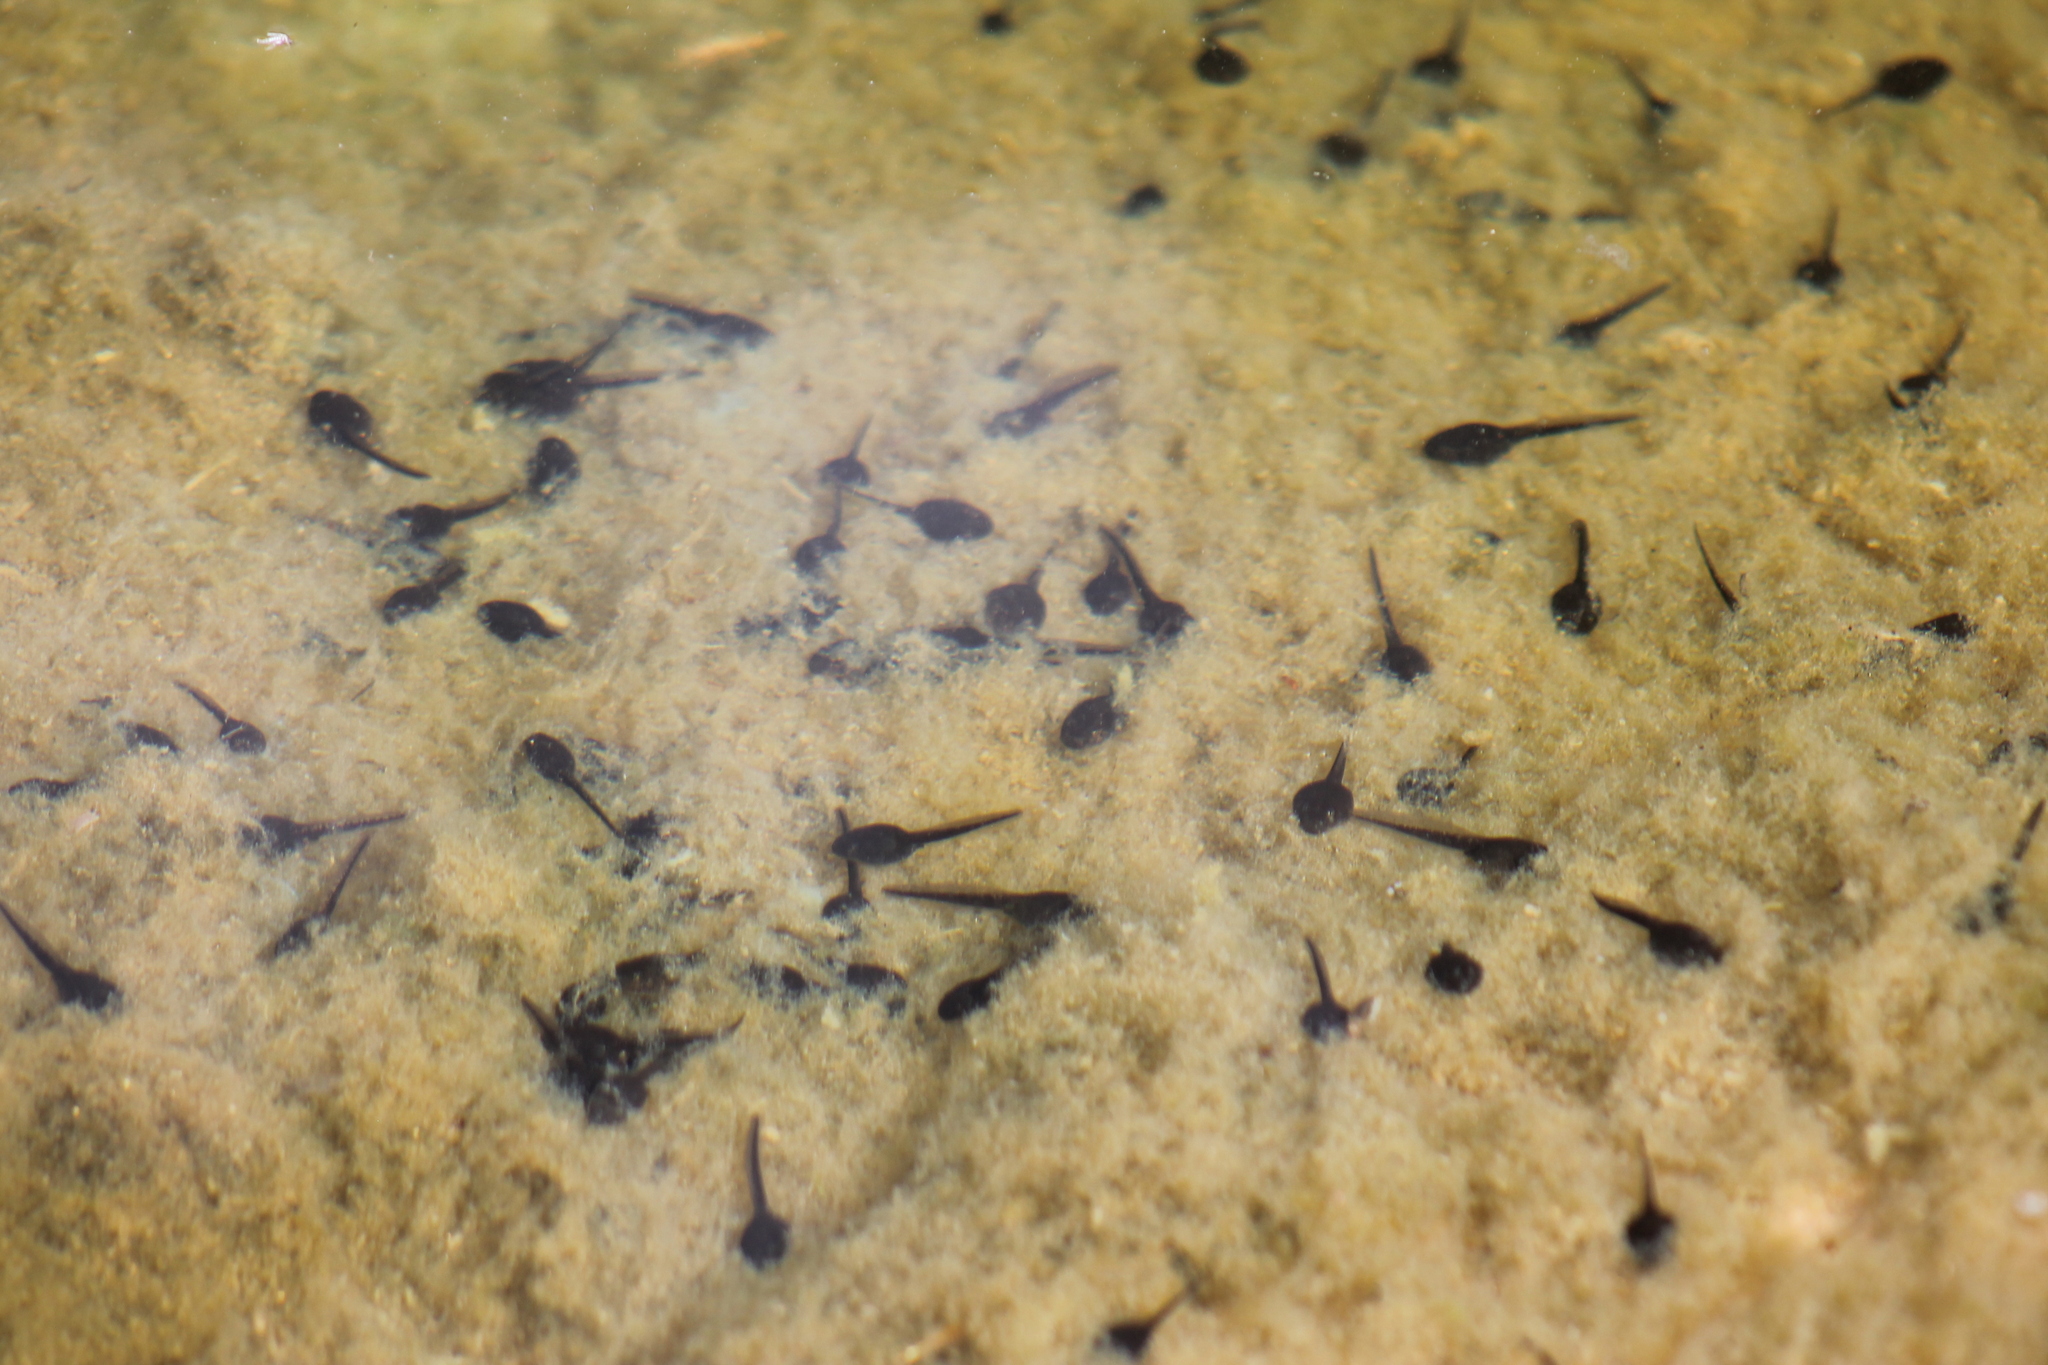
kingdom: Animalia
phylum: Chordata
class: Amphibia
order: Anura
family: Bufonidae
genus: Anaxyrus
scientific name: Anaxyrus boreas
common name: Western toad
